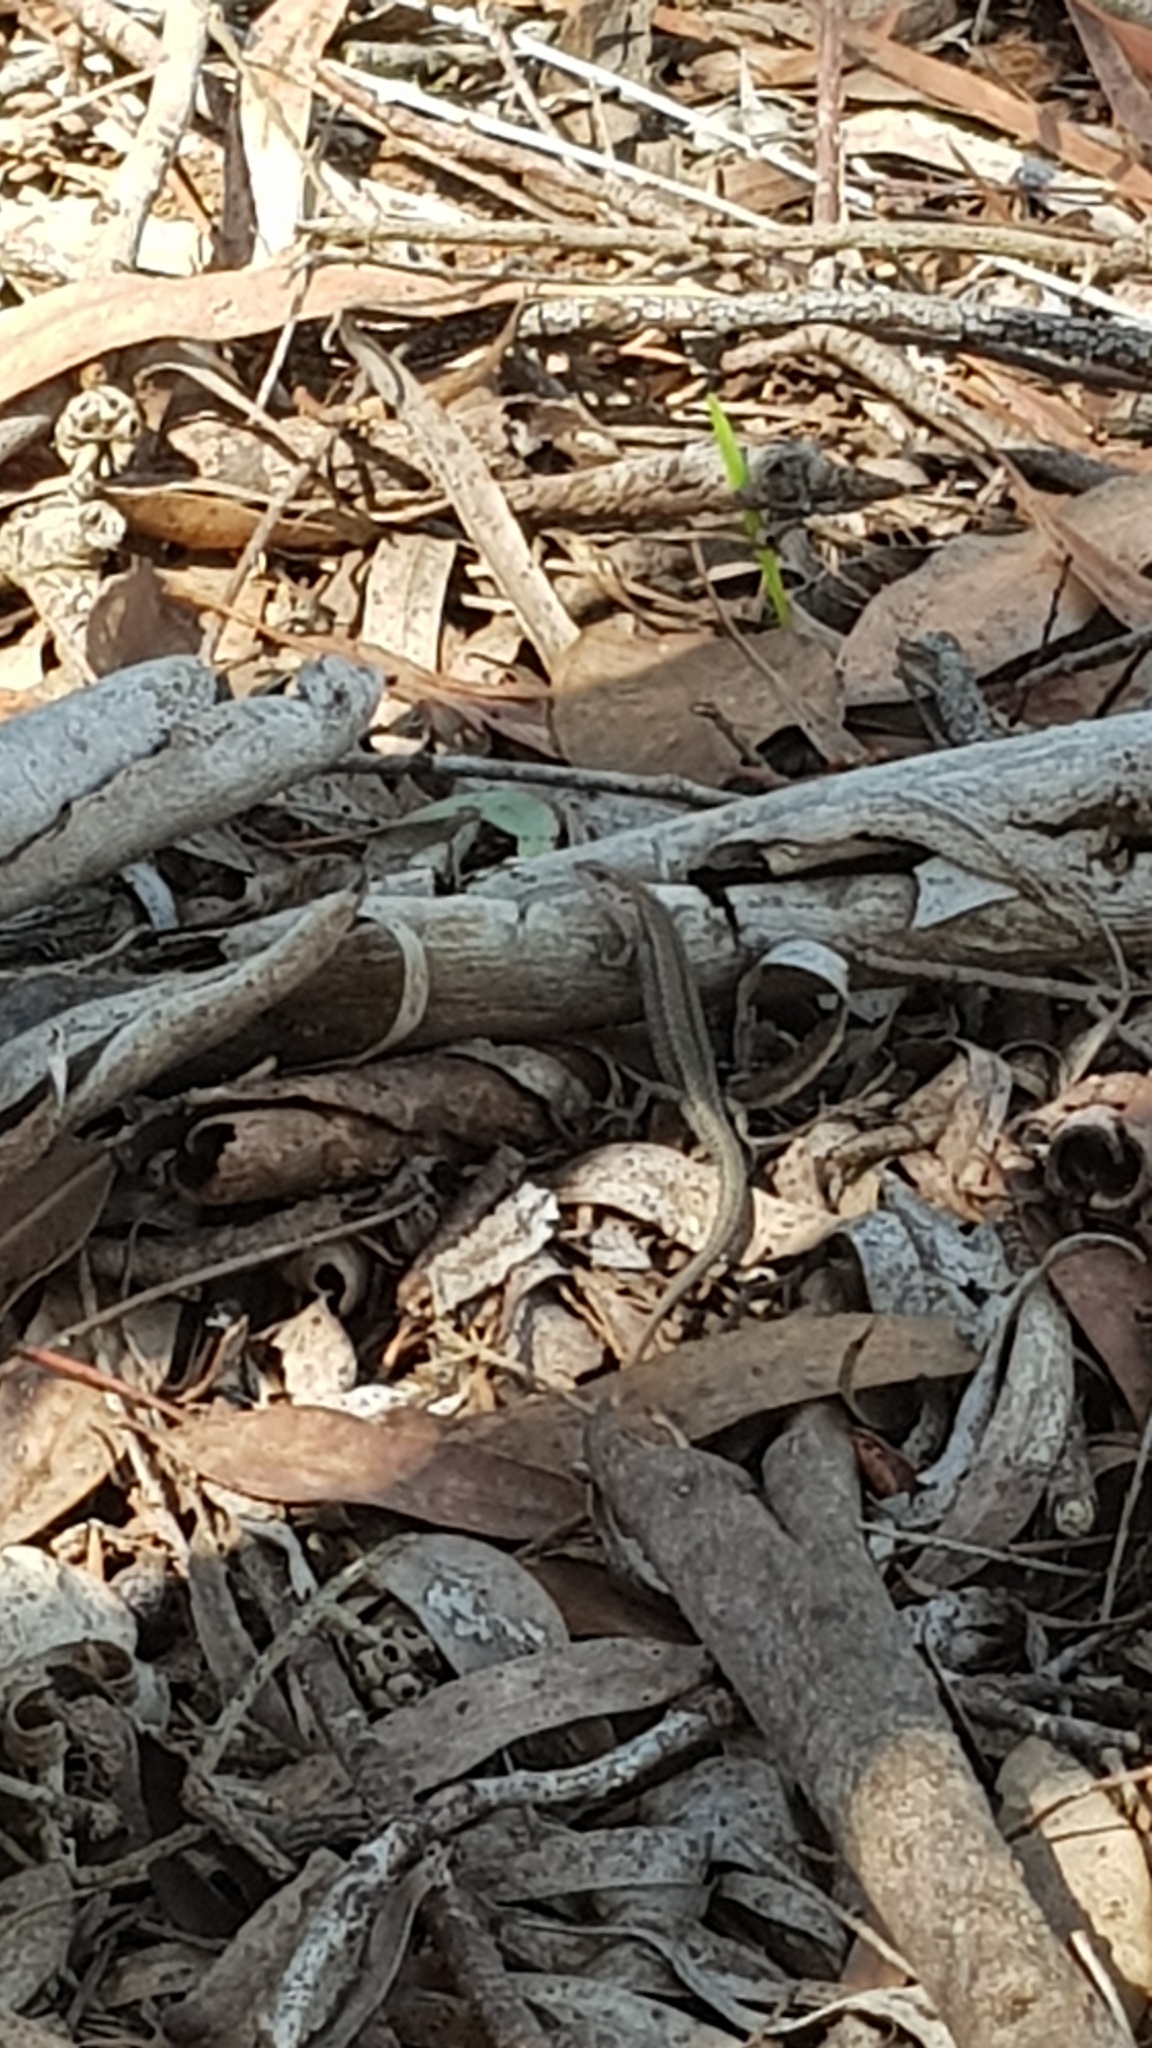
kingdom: Animalia
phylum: Chordata
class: Squamata
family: Scincidae
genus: Lampropholis
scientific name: Lampropholis guichenoti
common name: Garden skink
